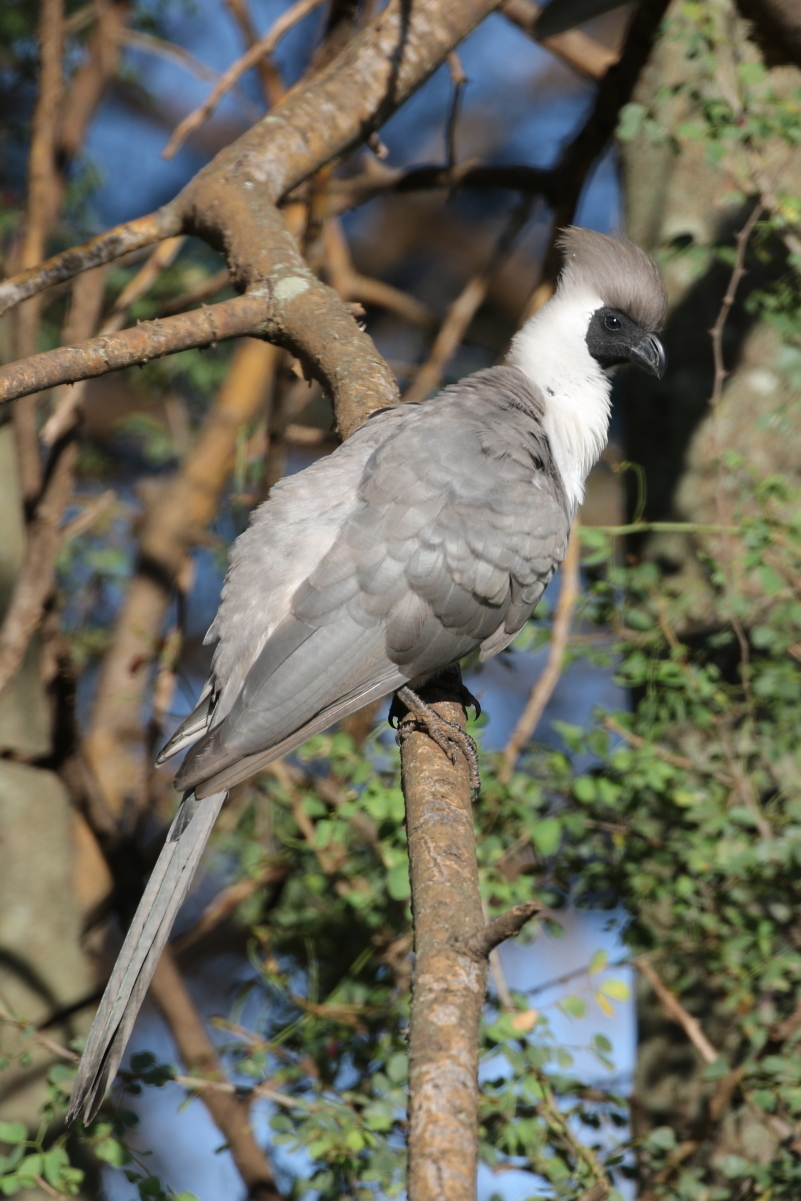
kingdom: Animalia
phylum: Chordata
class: Aves
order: Musophagiformes
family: Musophagidae
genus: Corythaixoides
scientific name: Corythaixoides personatus
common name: Bare-faced go-away-bird
